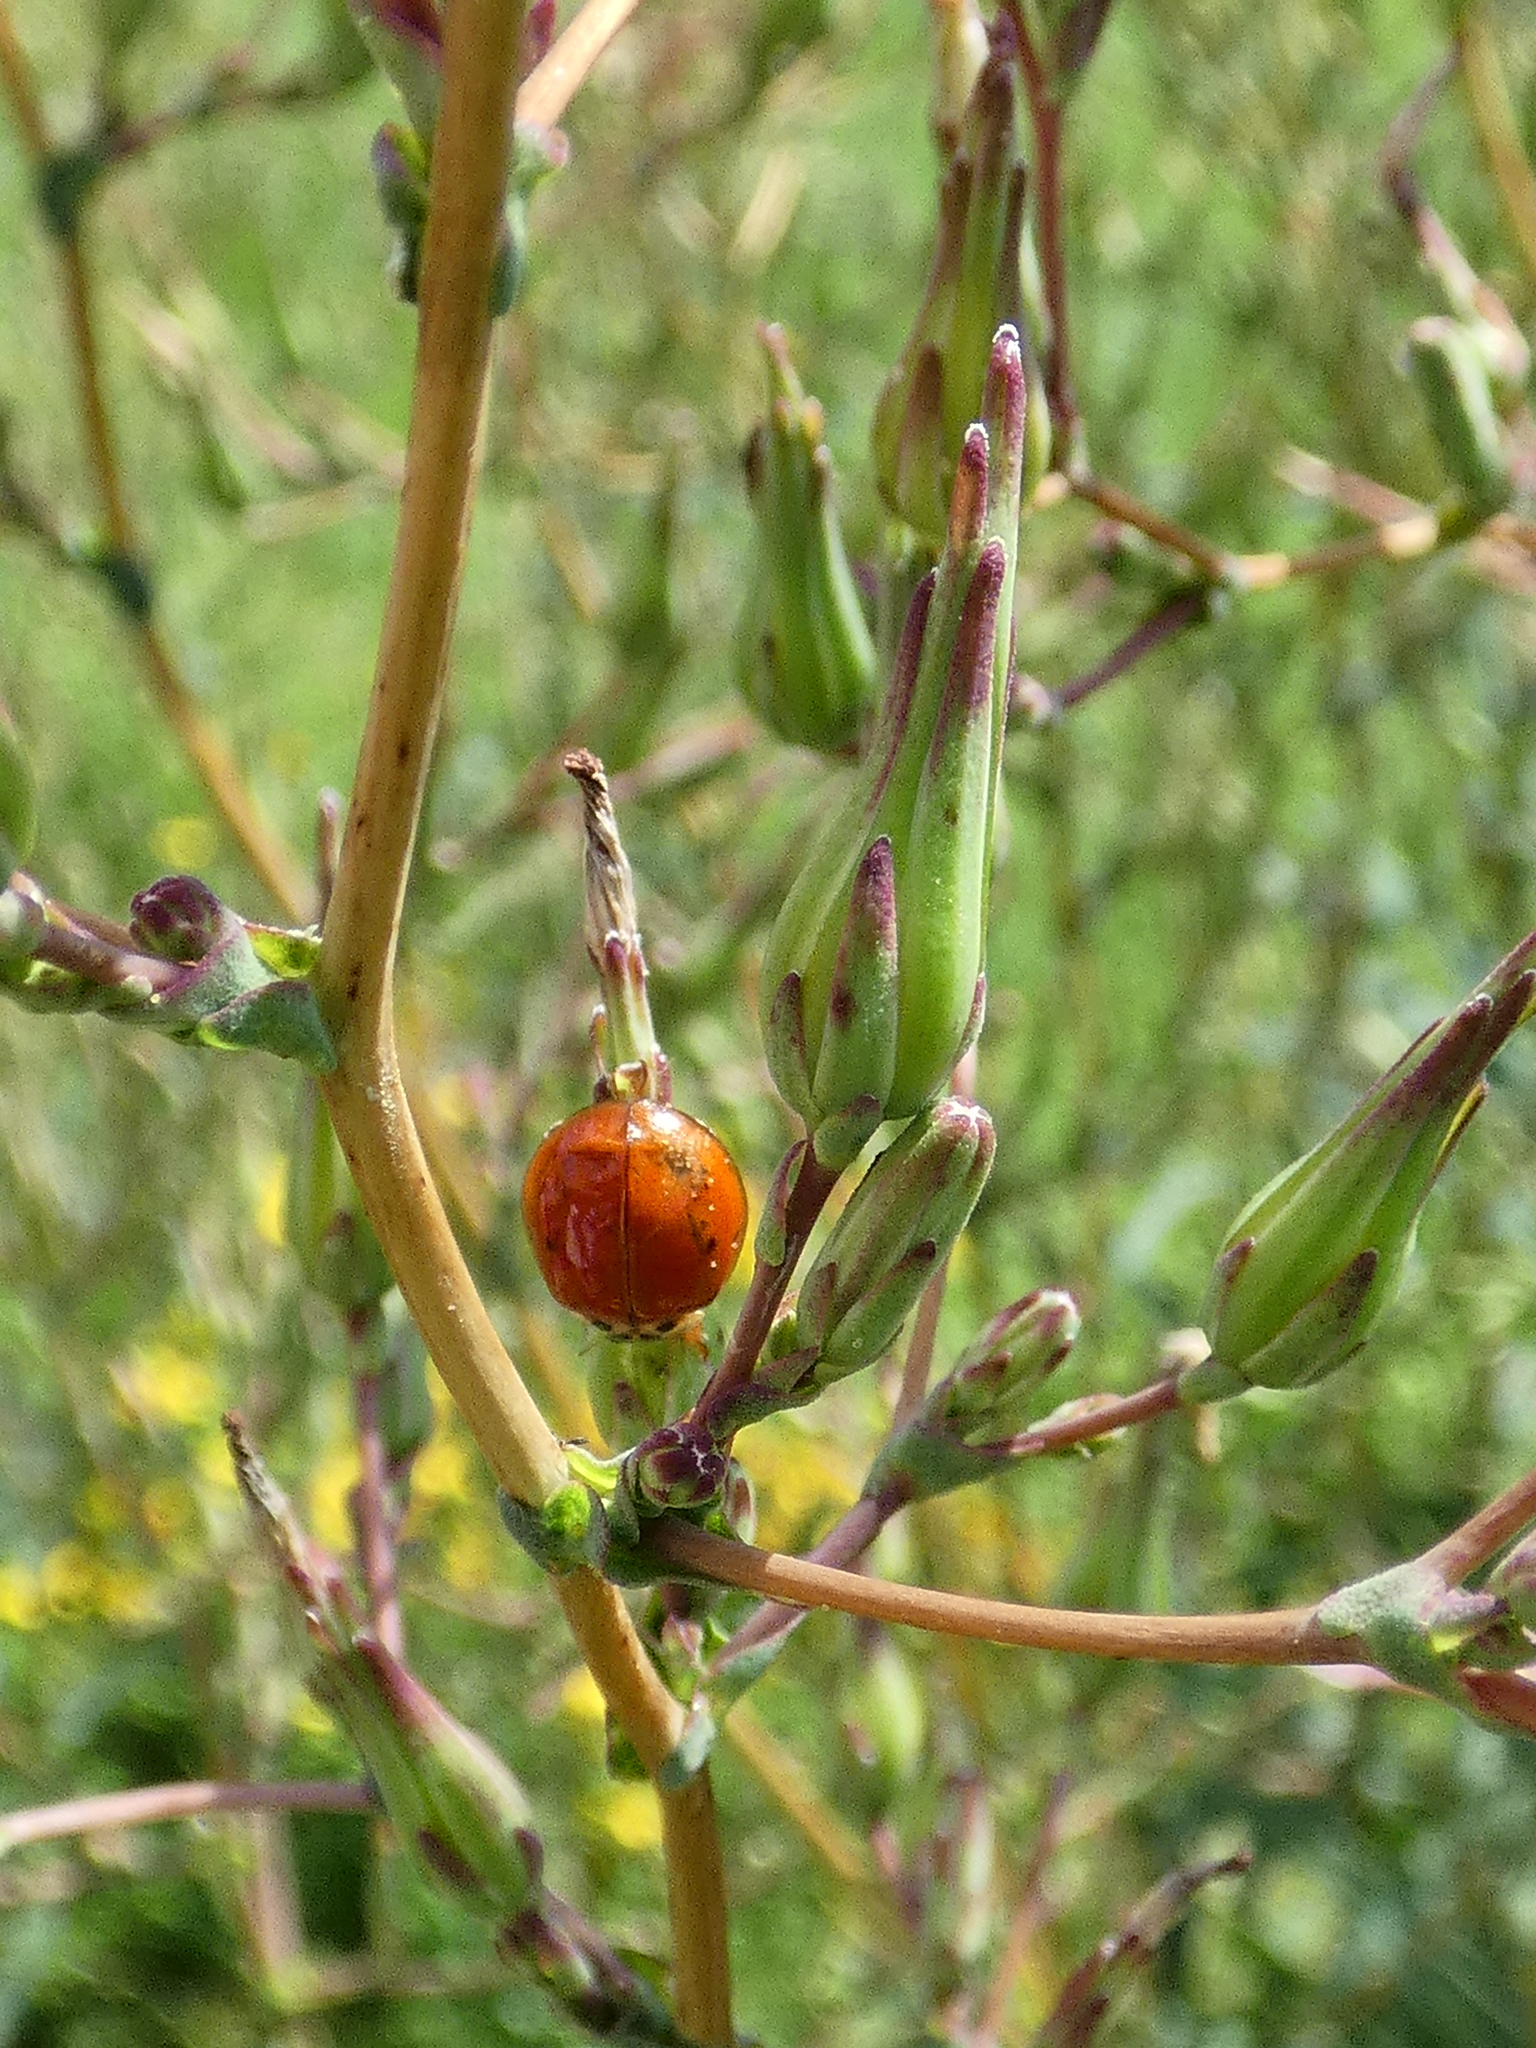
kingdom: Animalia
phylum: Arthropoda
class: Insecta
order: Coleoptera
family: Coccinellidae
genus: Harmonia
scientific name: Harmonia axyridis
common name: Harlequin ladybird
